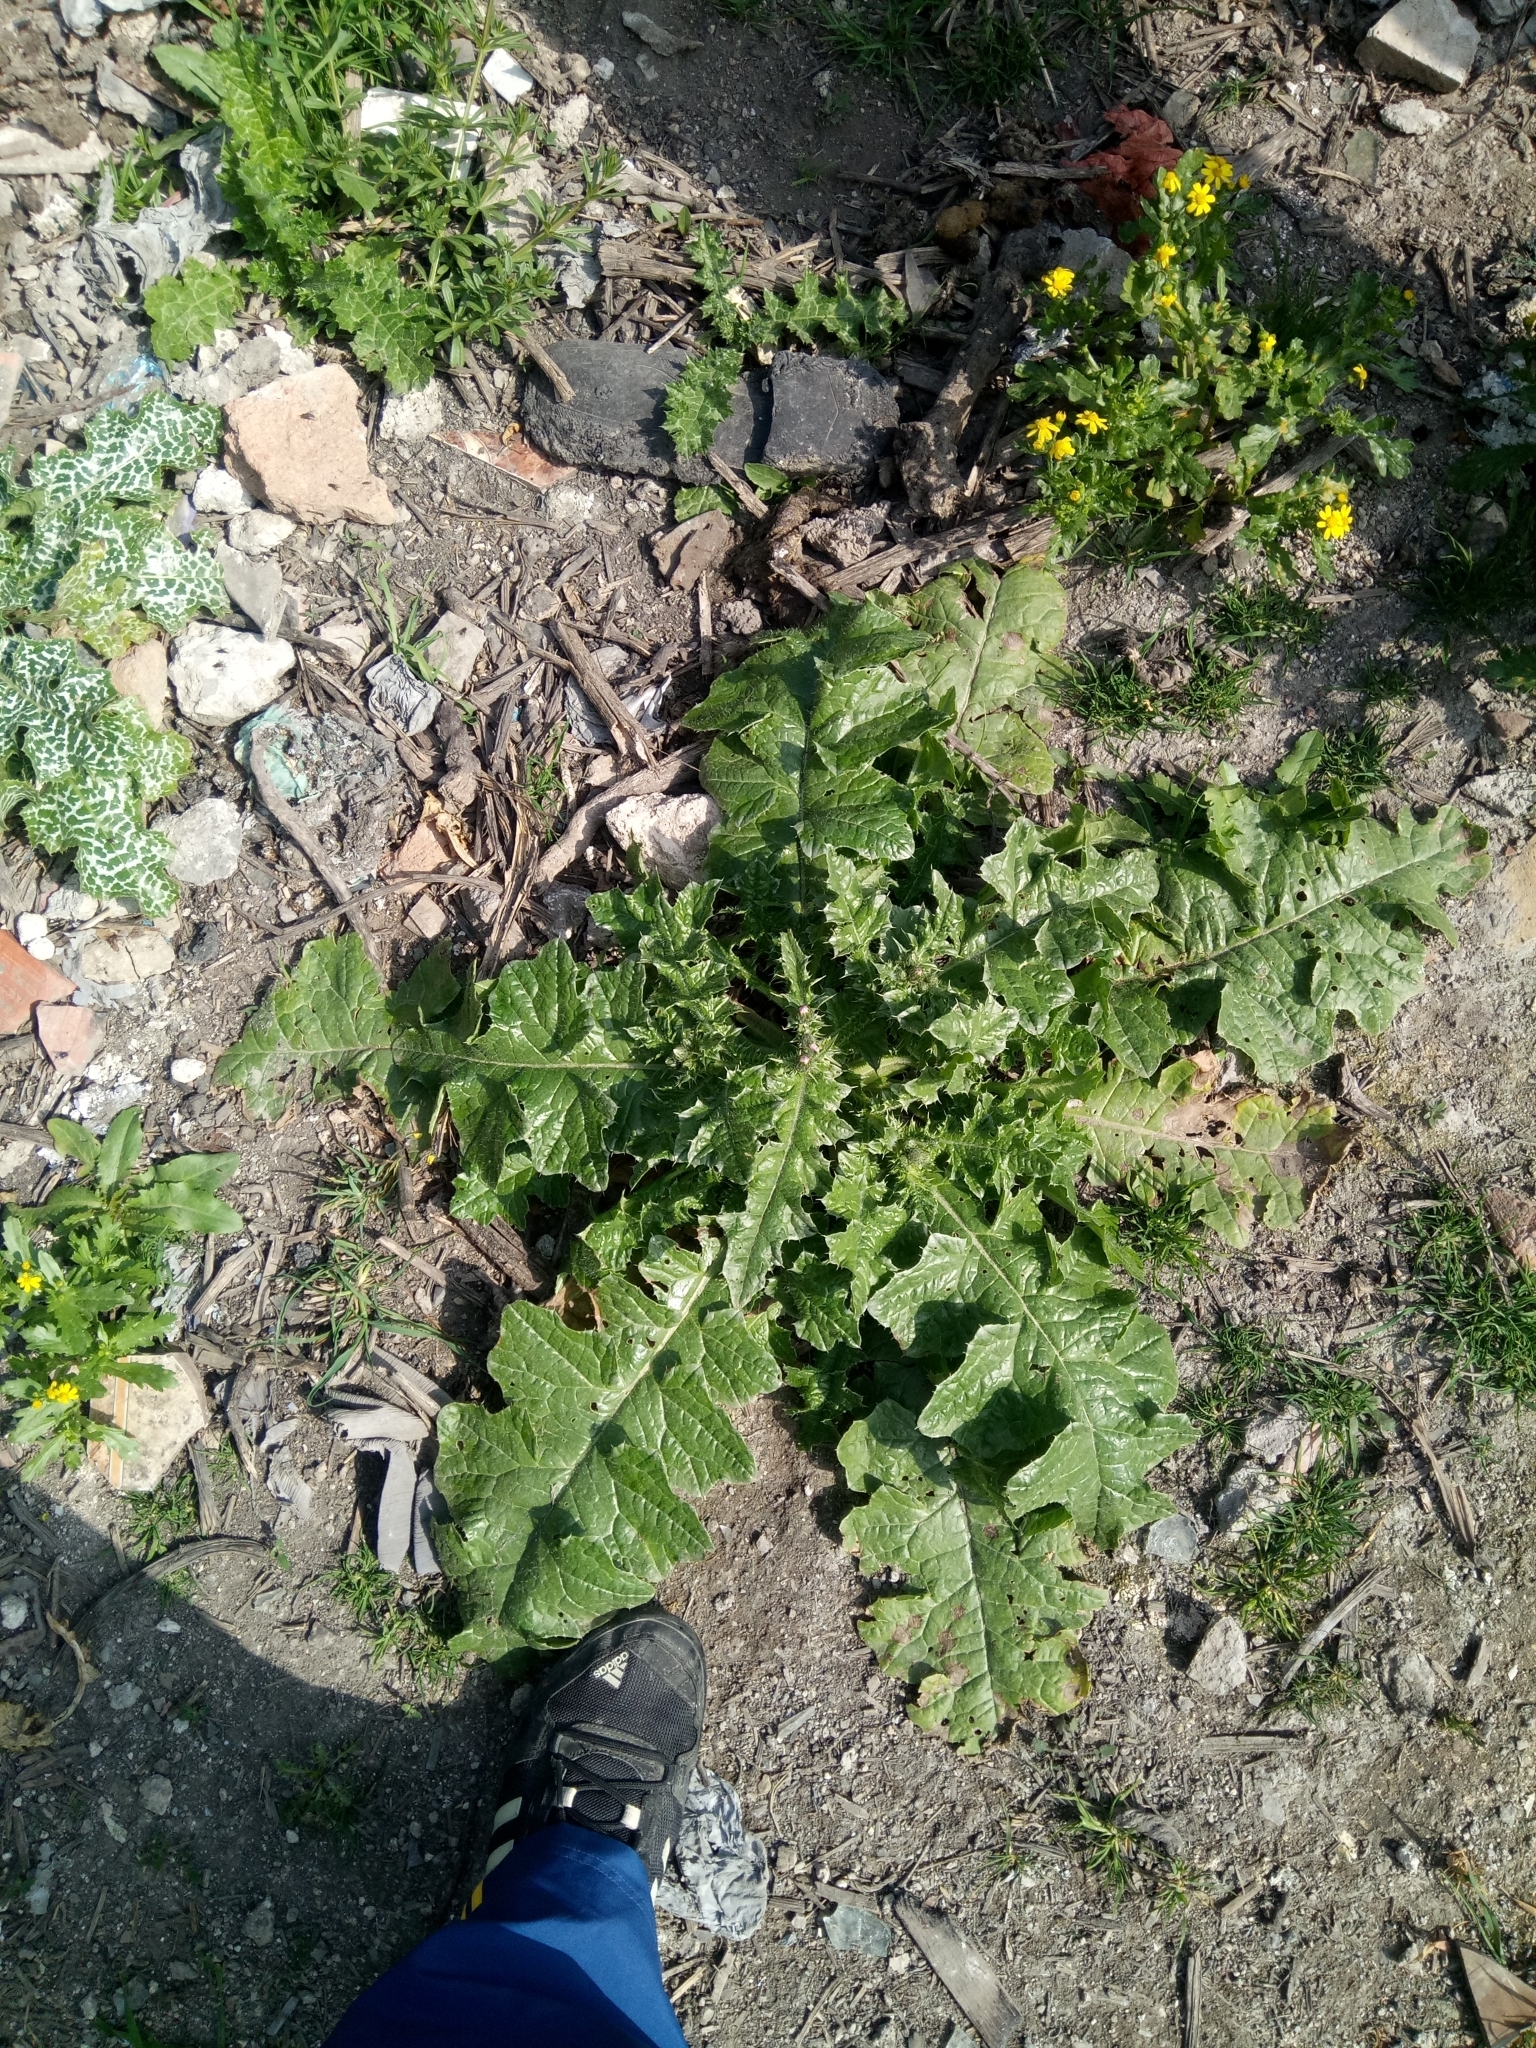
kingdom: Plantae
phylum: Tracheophyta
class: Magnoliopsida
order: Asterales
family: Asteraceae
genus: Carduus
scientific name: Carduus spachianus
